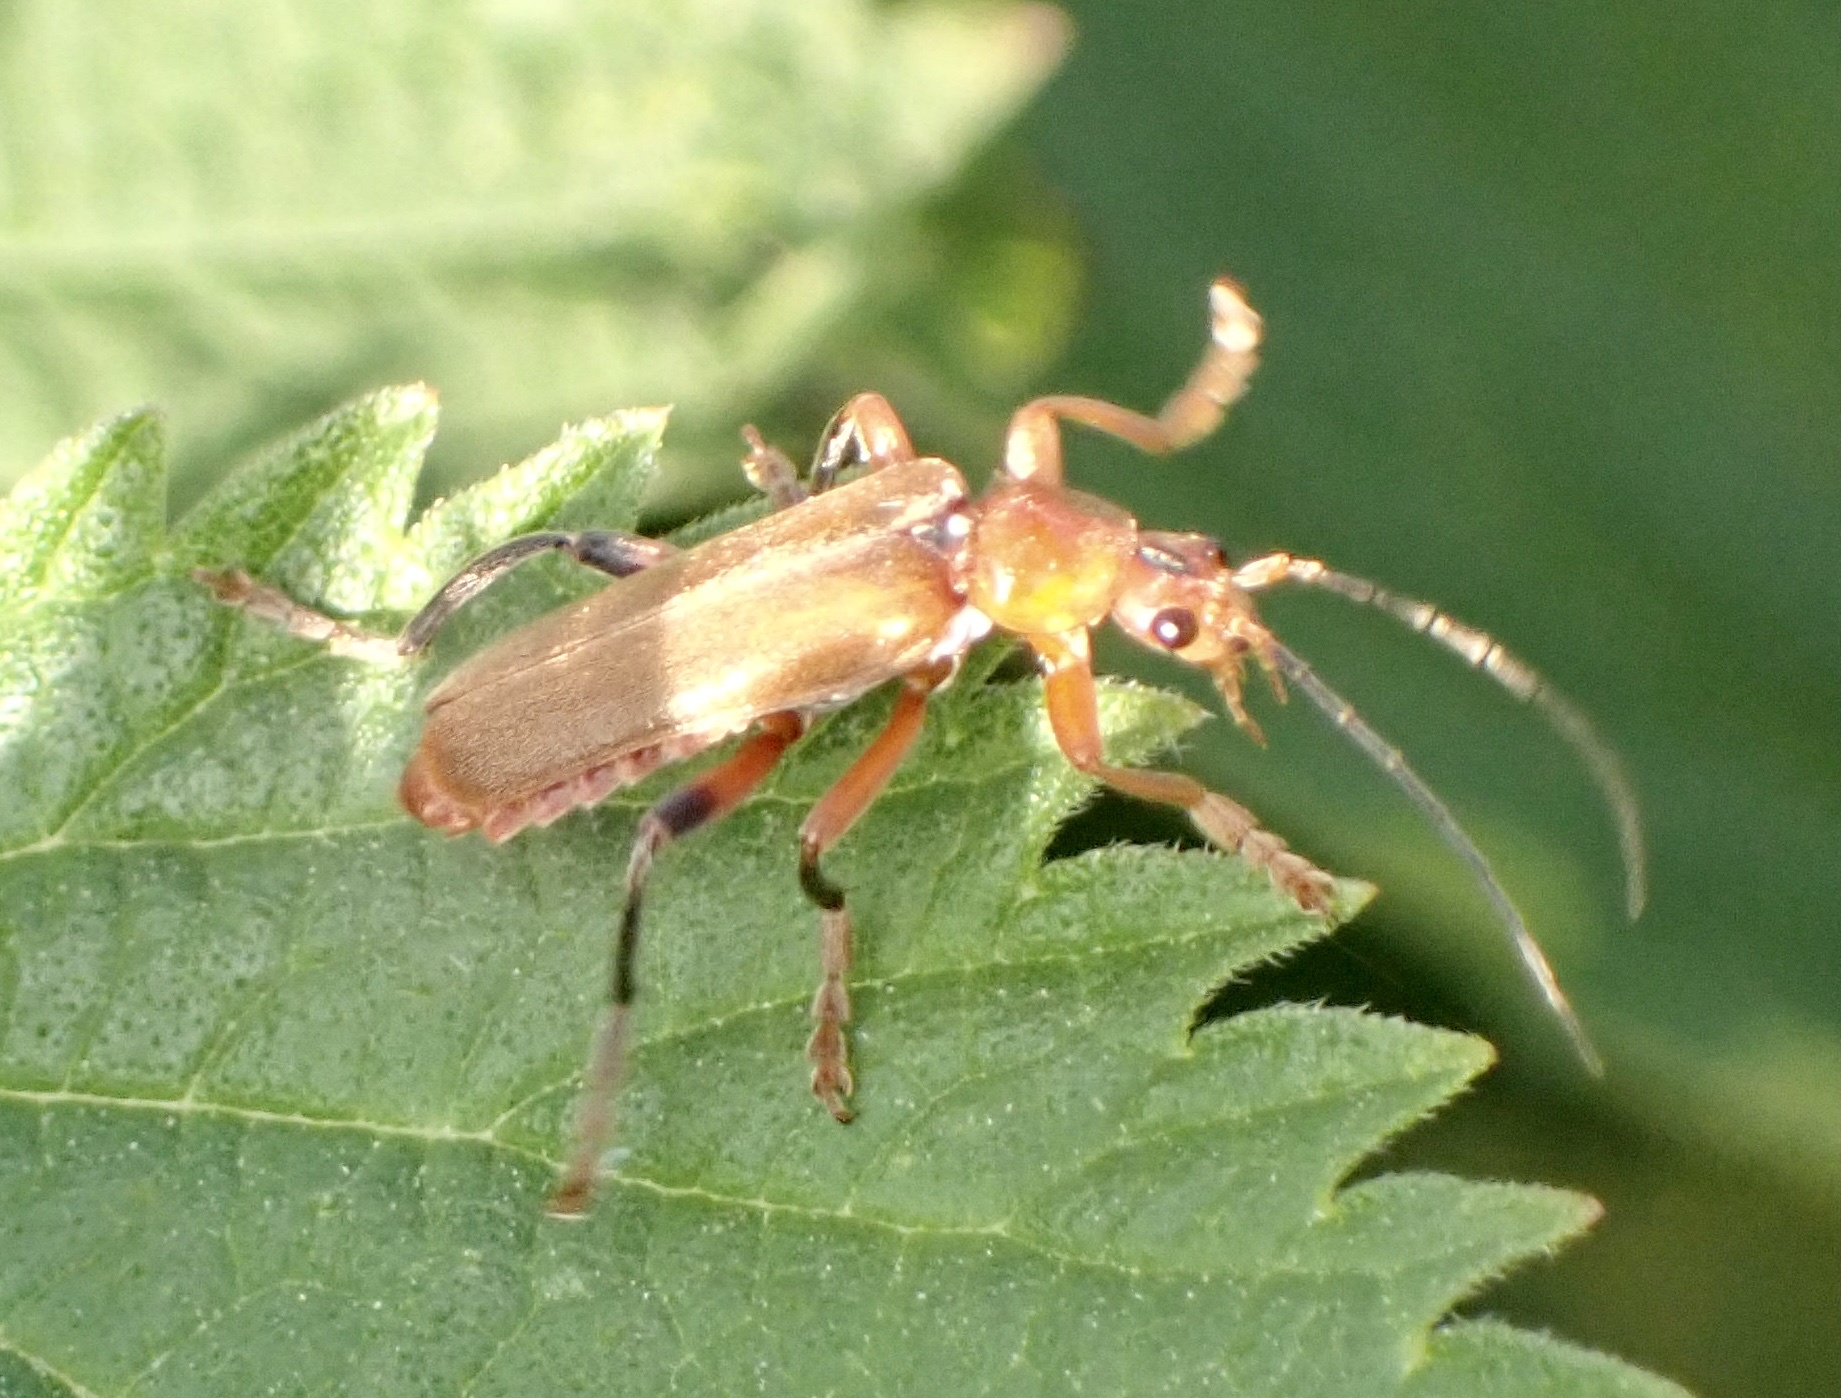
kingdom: Animalia
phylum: Arthropoda
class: Insecta
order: Coleoptera
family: Cantharidae
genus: Cantharis
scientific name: Cantharis livida
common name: Livid soldier beetle
